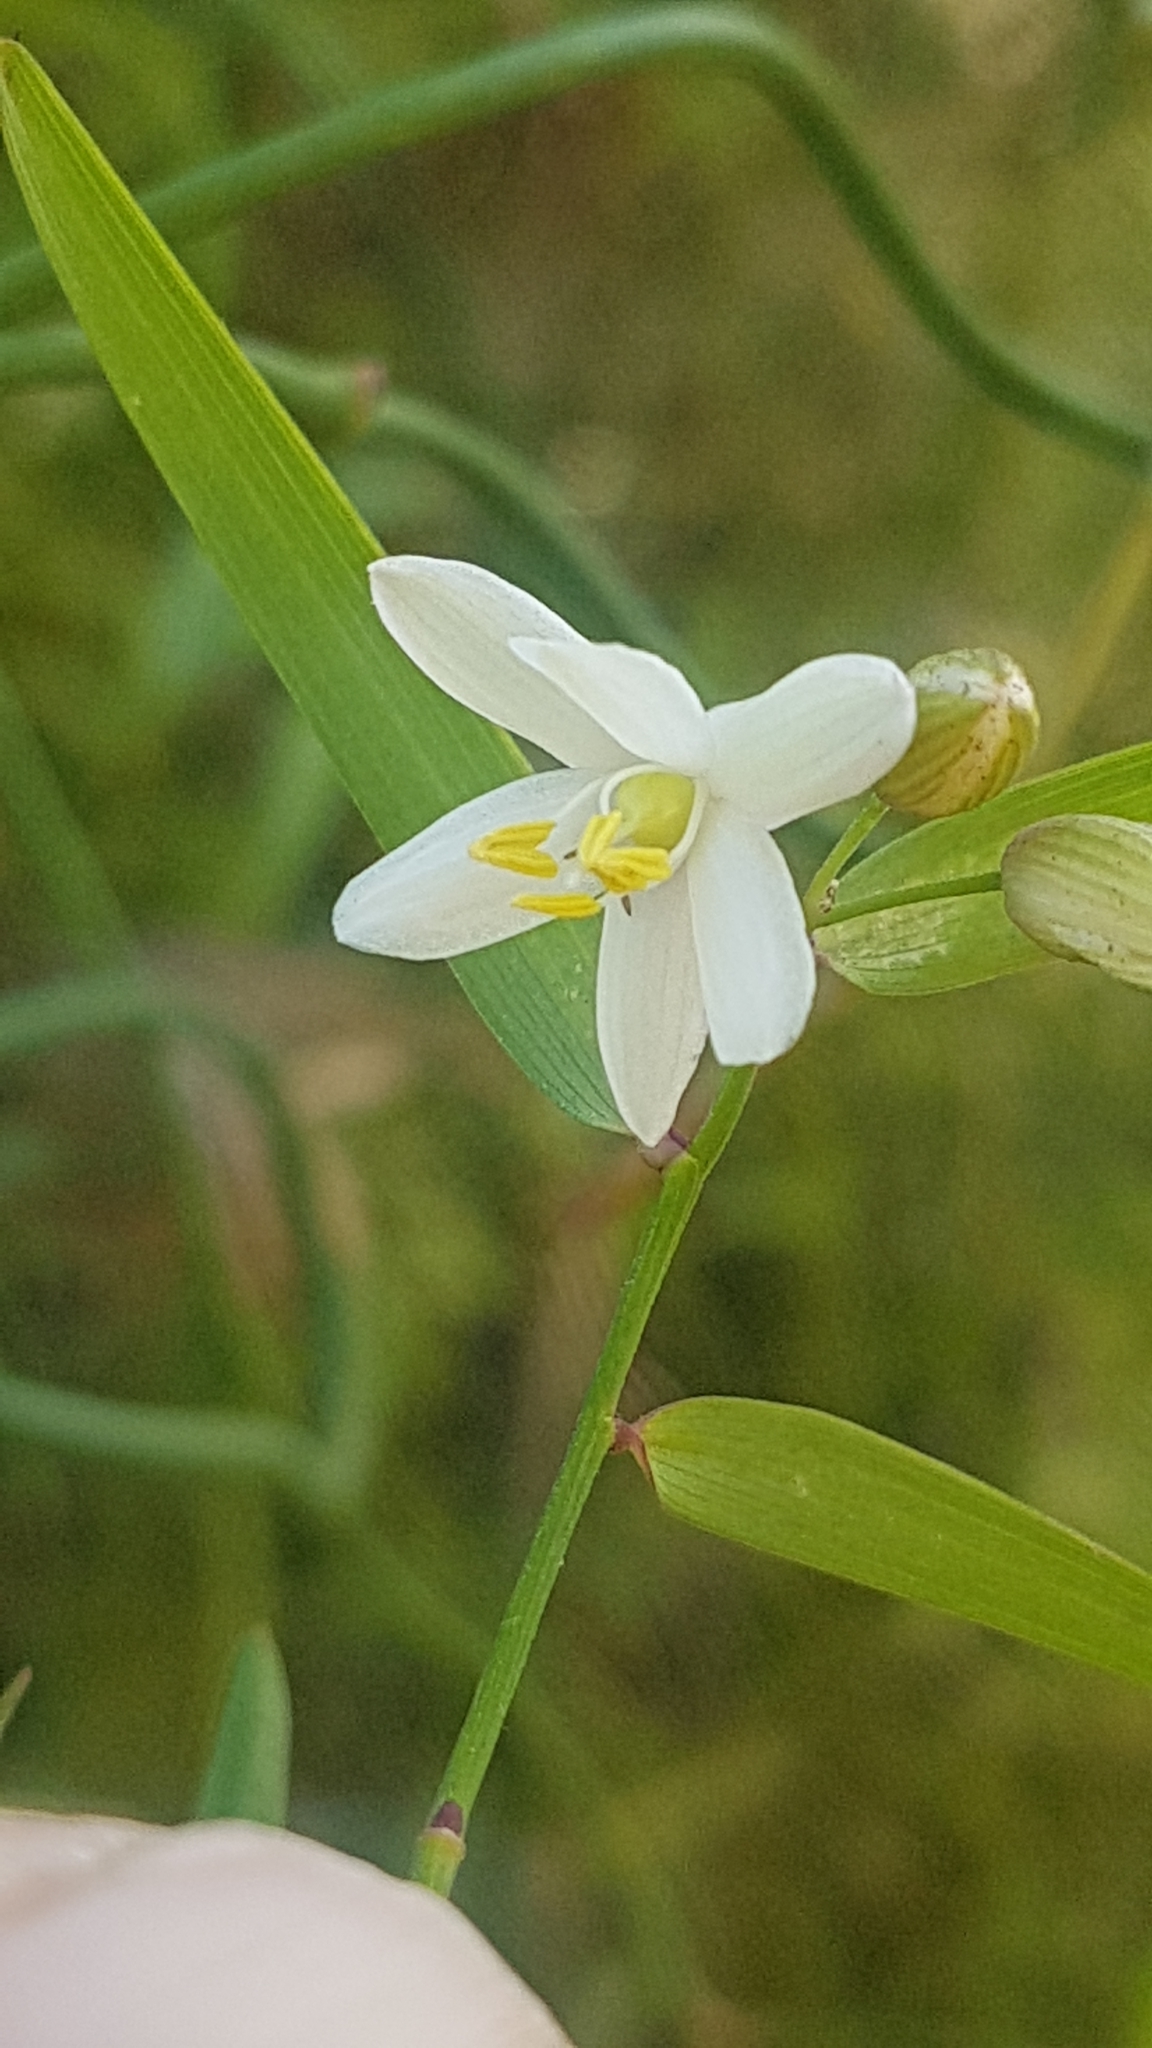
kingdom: Plantae
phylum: Tracheophyta
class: Liliopsida
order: Asparagales
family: Asphodelaceae
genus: Geitonoplesium
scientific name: Geitonoplesium cymosum
